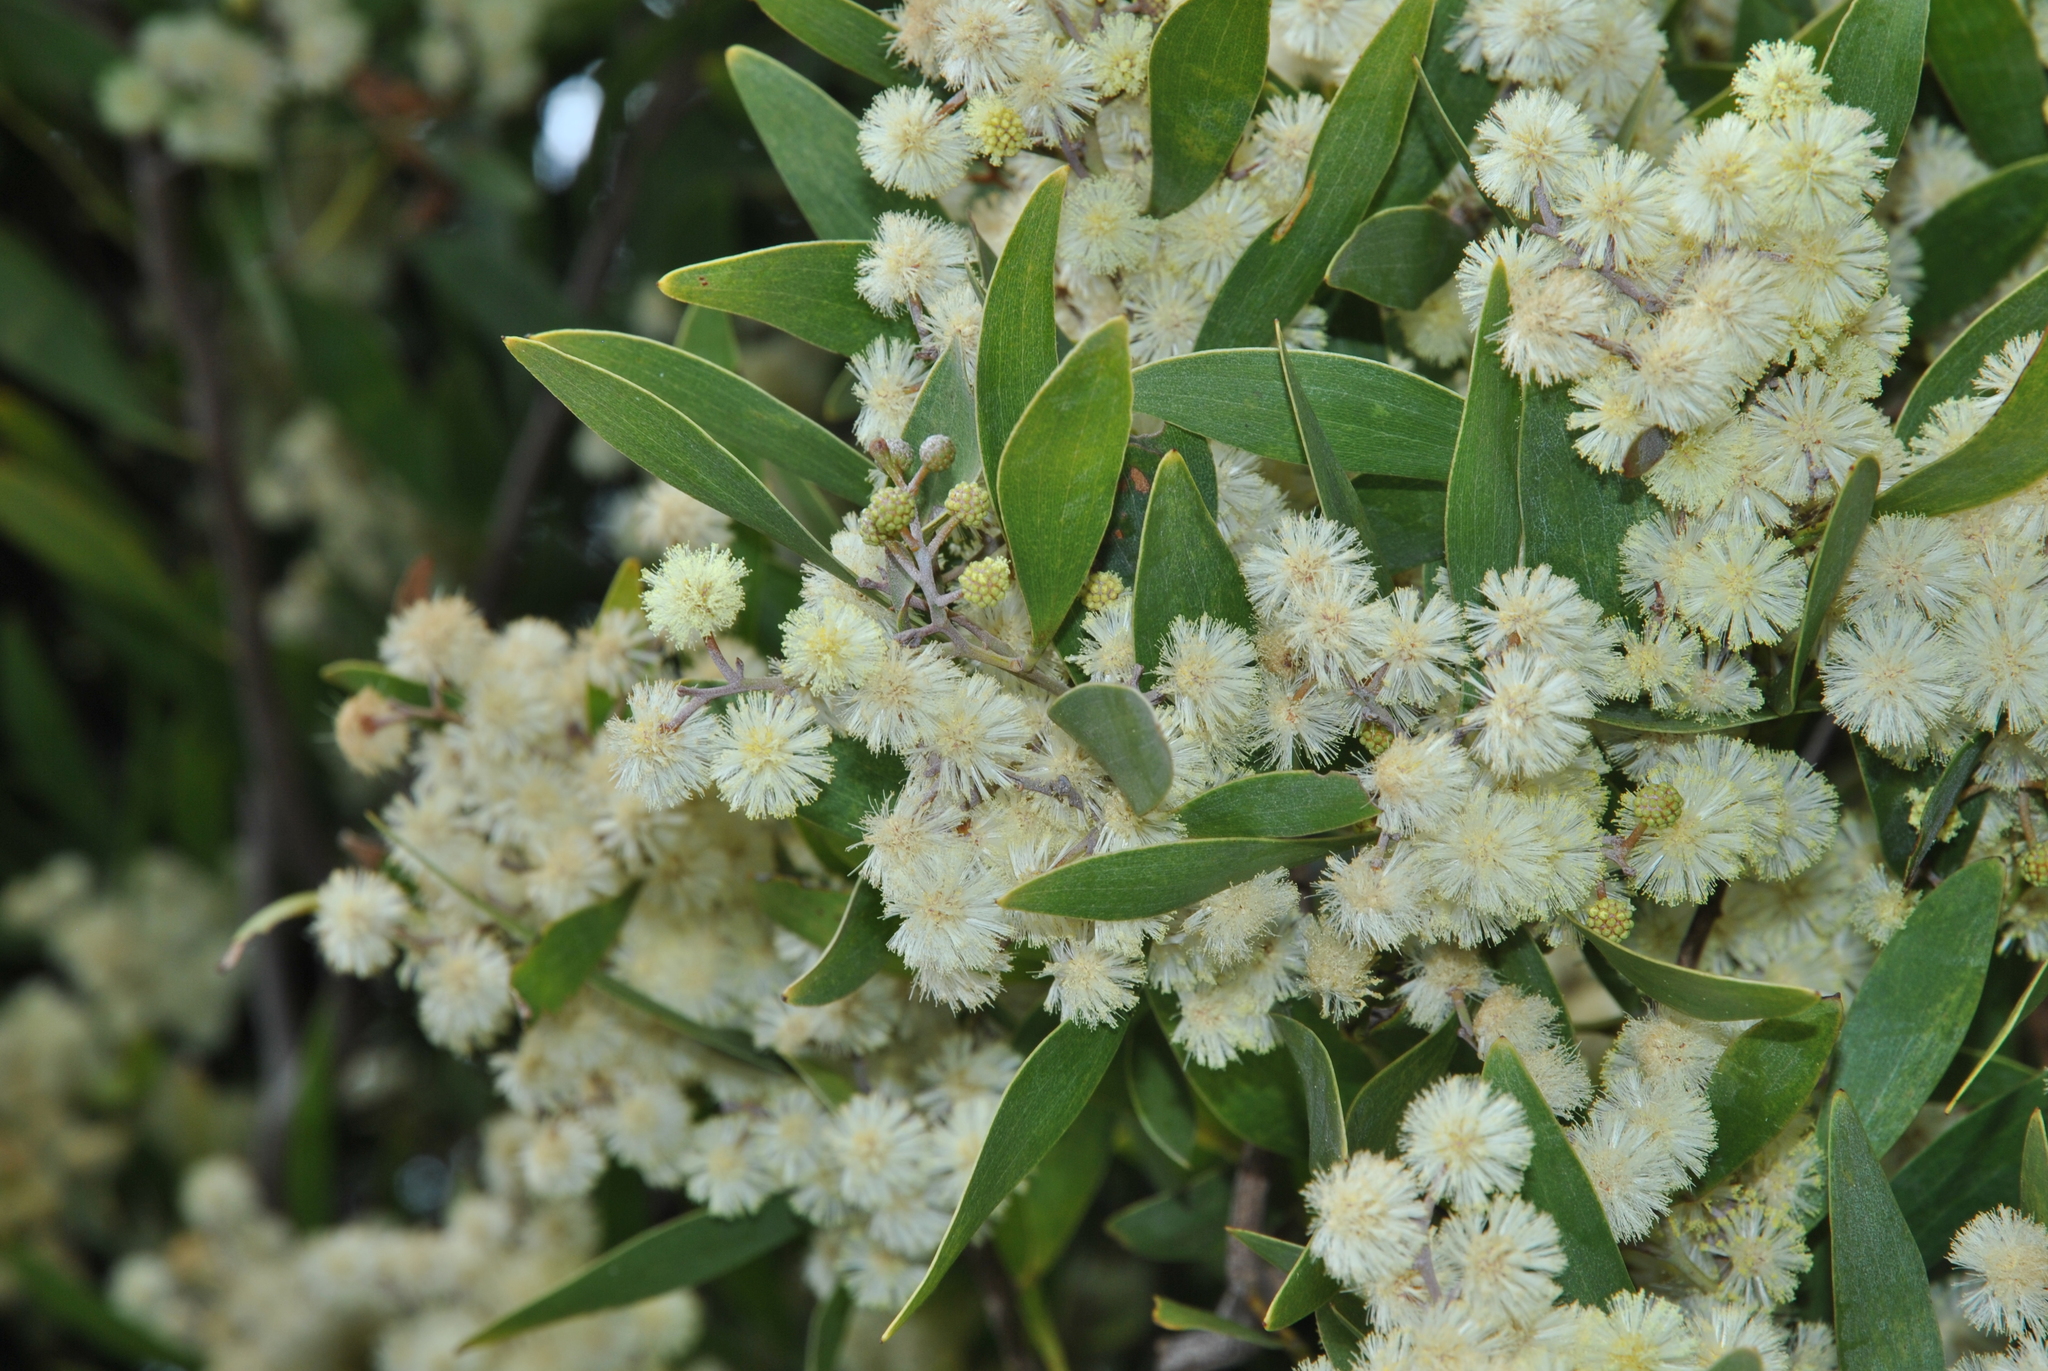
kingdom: Plantae
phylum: Tracheophyta
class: Magnoliopsida
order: Fabales
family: Fabaceae
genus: Acacia
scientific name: Acacia melanoxylon
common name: Blackwood
